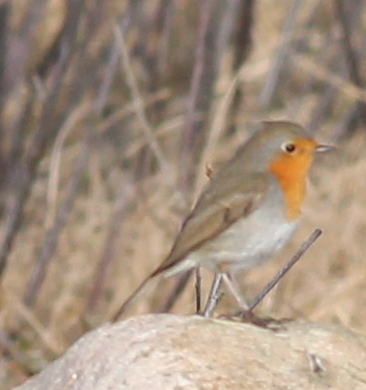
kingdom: Animalia
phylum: Chordata
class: Aves
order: Passeriformes
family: Muscicapidae
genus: Erithacus
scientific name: Erithacus rubecula
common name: European robin
